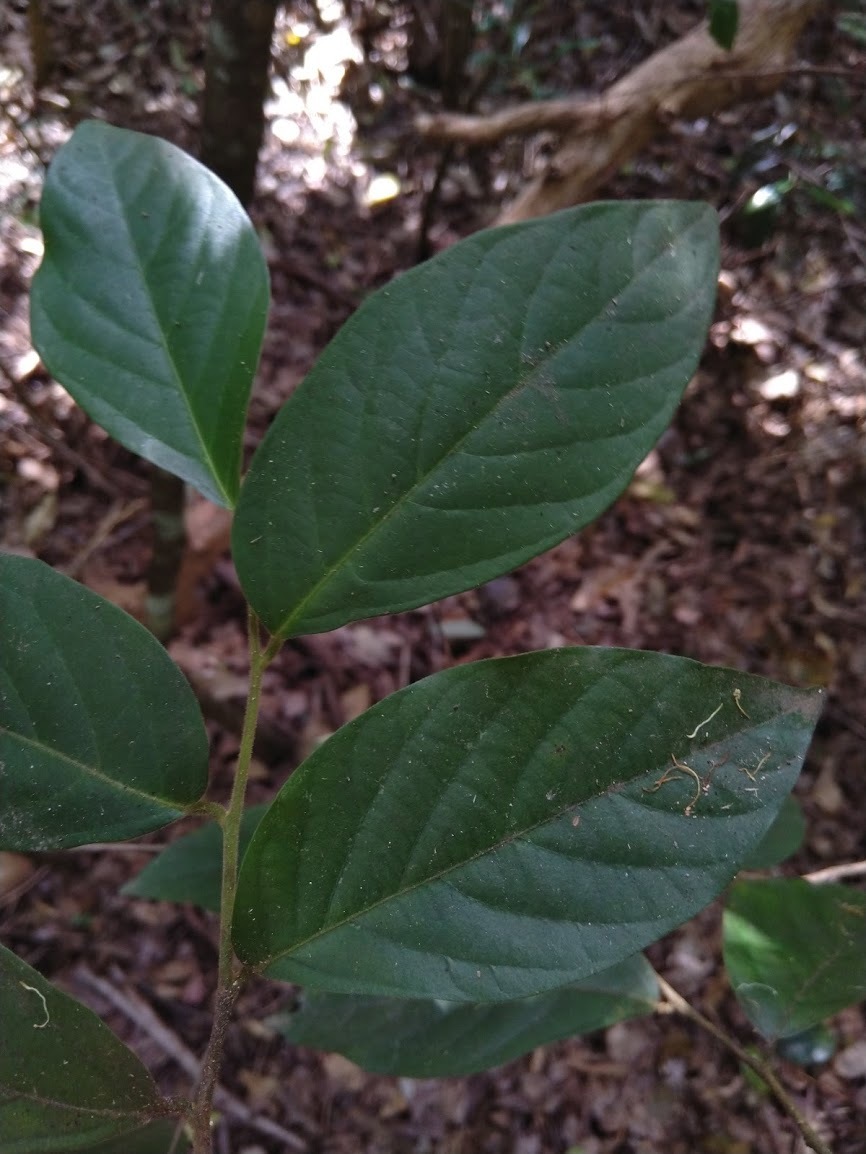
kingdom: Plantae
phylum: Tracheophyta
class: Magnoliopsida
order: Cornales
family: Cornaceae
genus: Alangium
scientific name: Alangium polyosmoides
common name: Black muskheart
